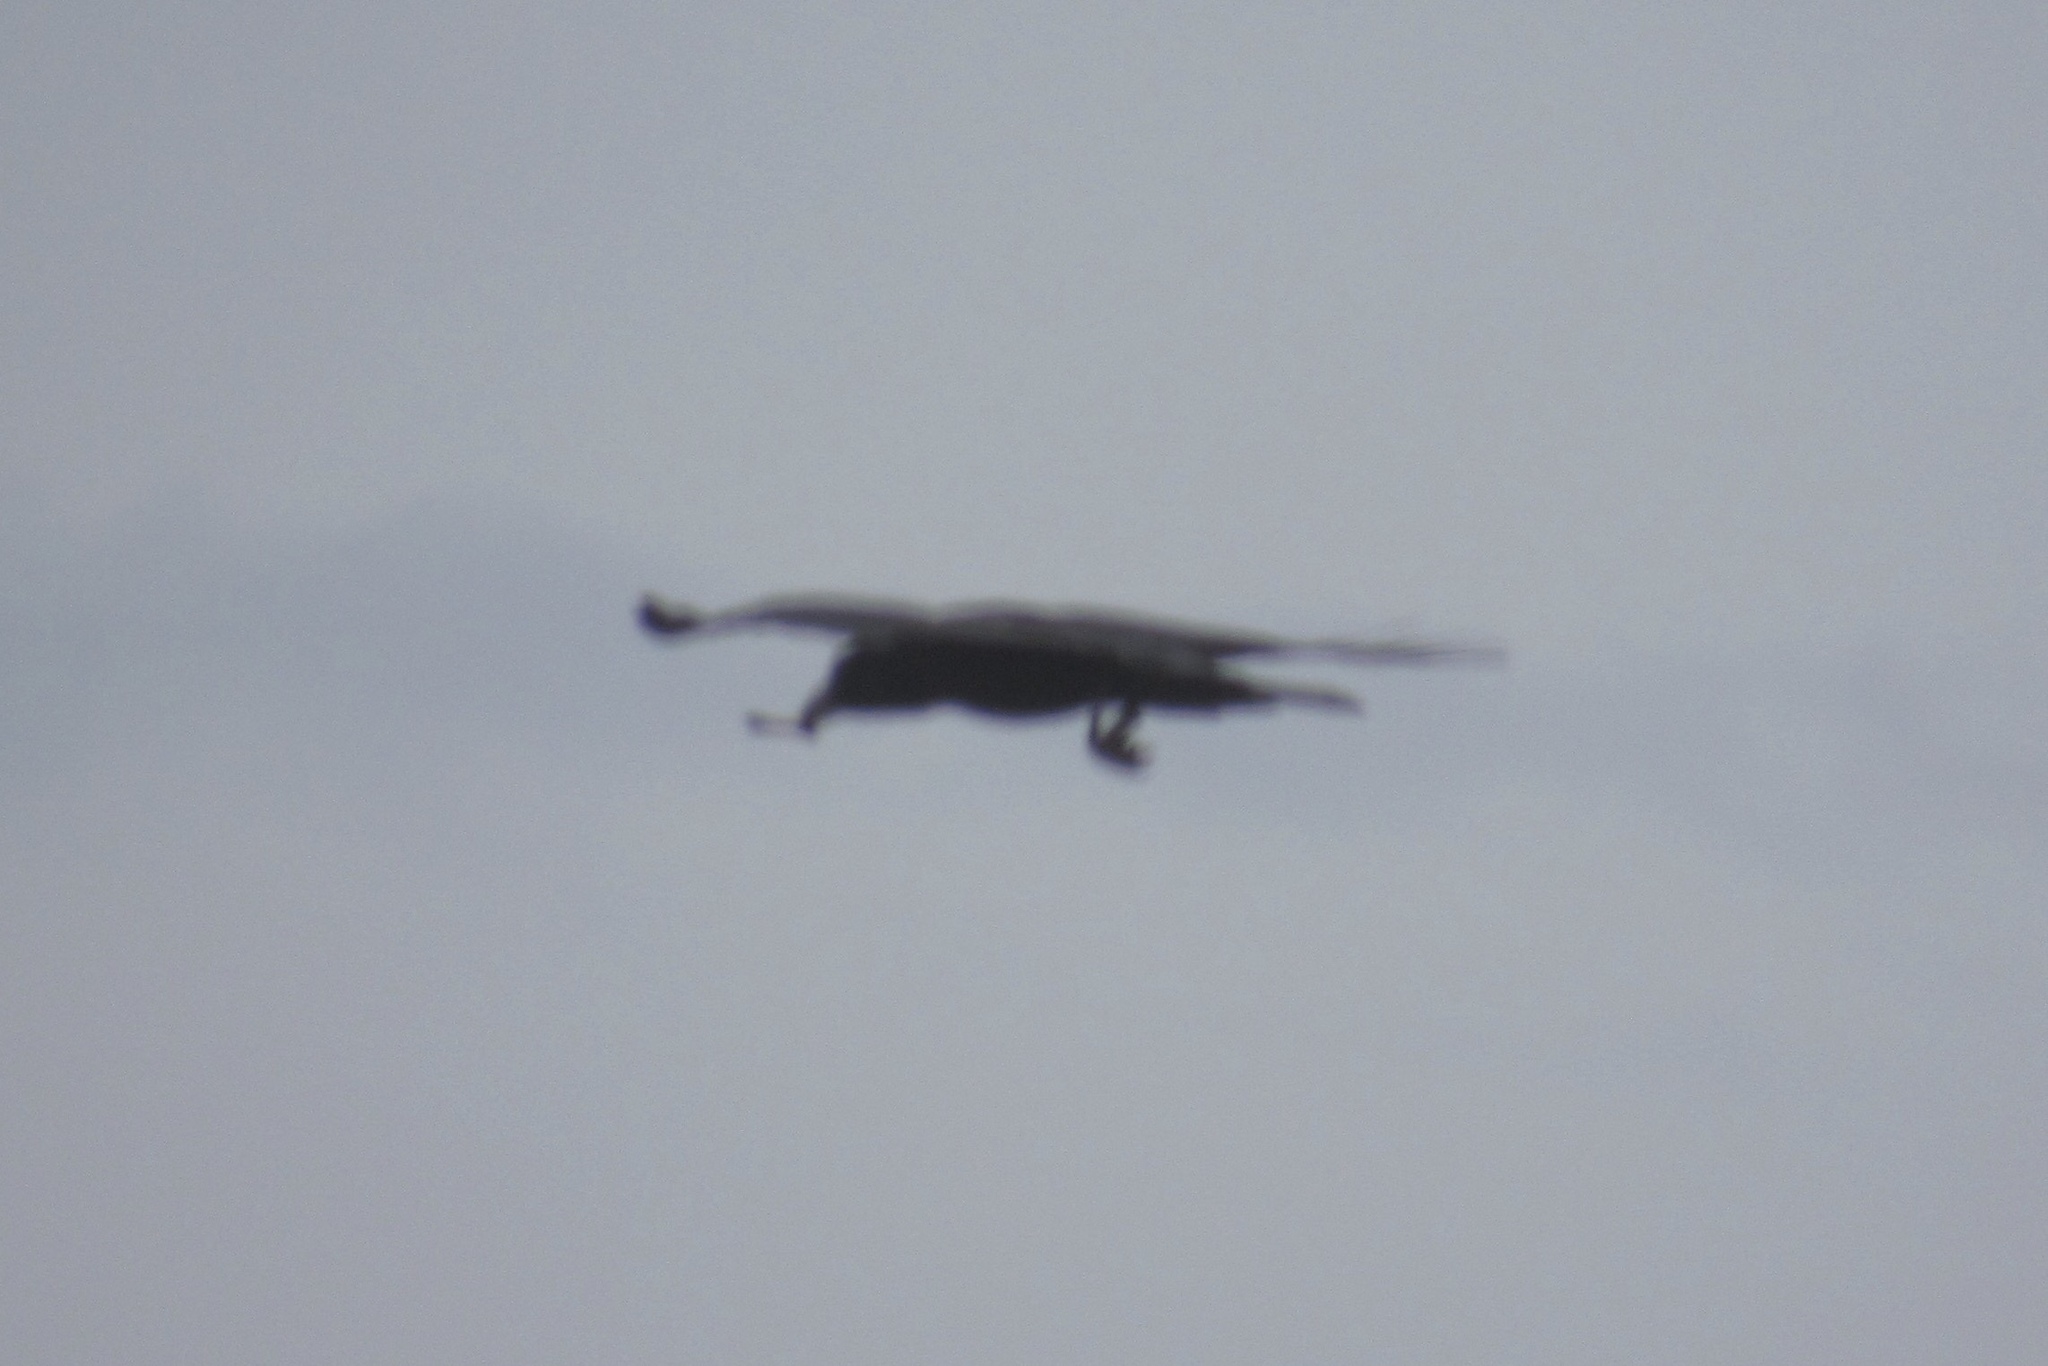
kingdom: Animalia
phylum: Chordata
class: Aves
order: Passeriformes
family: Corvidae
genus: Corvus
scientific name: Corvus corax
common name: Common raven
